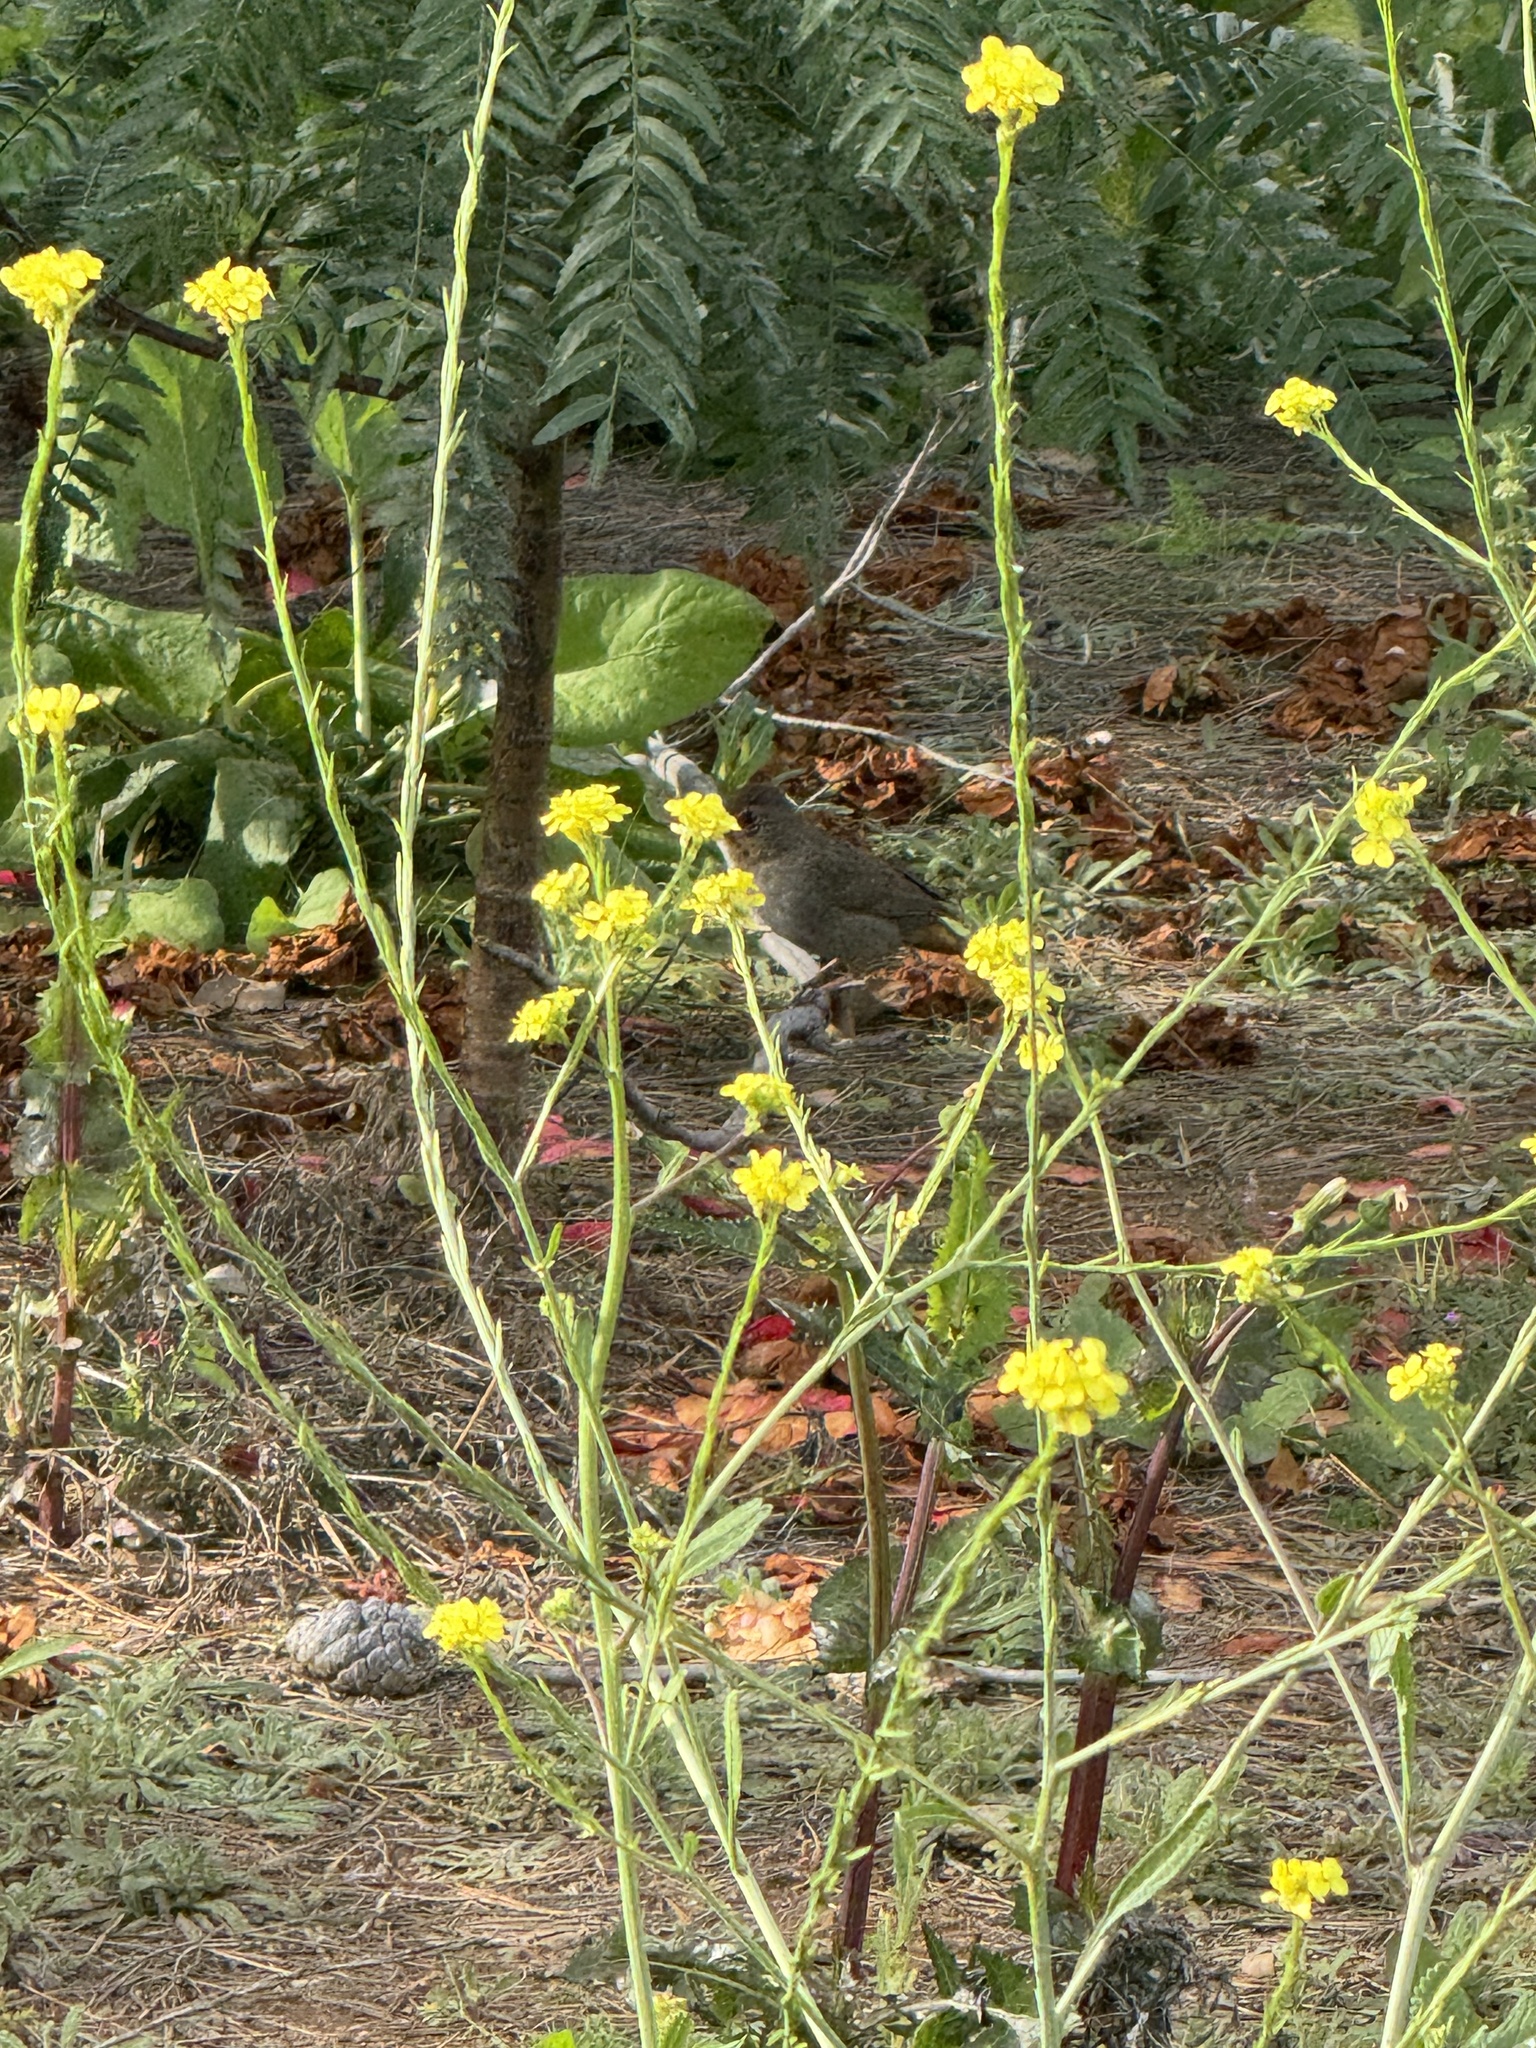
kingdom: Animalia
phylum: Chordata
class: Aves
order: Passeriformes
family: Passerellidae
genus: Melozone
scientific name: Melozone crissalis
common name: California towhee
